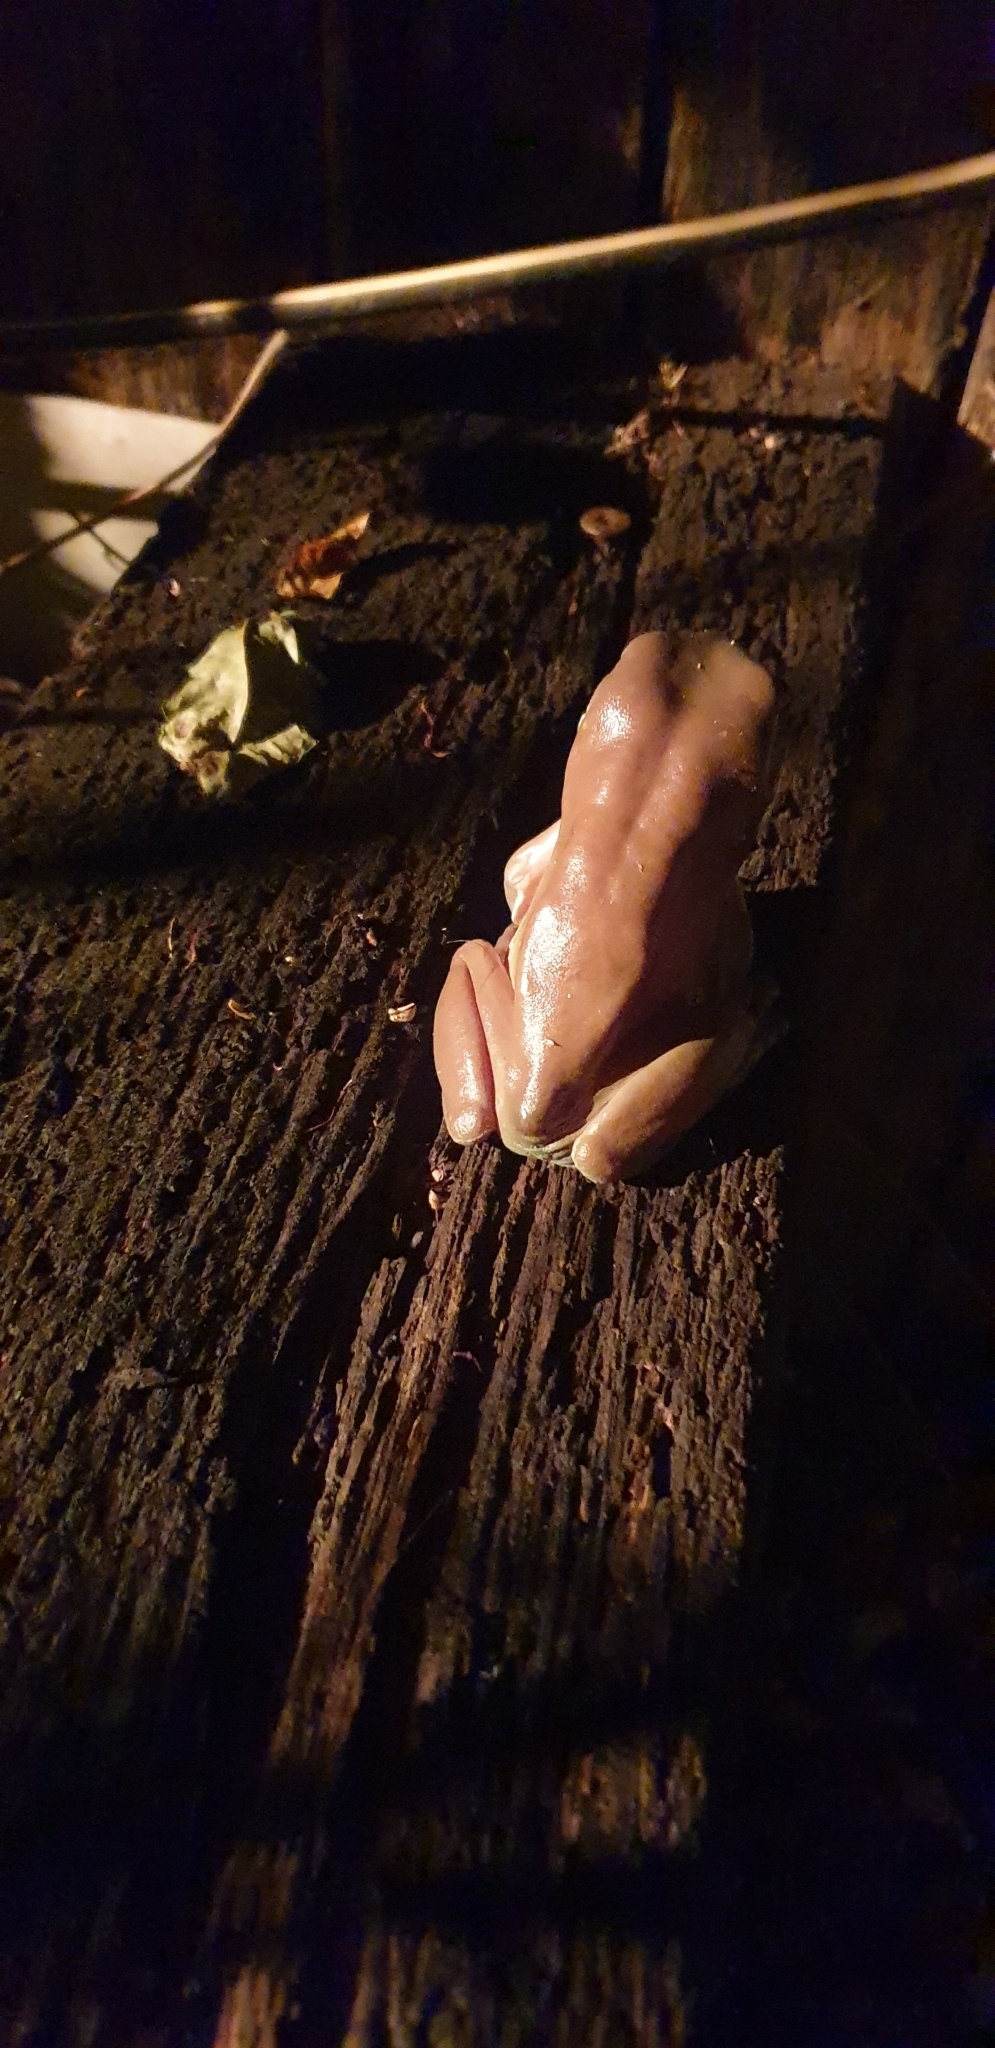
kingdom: Animalia
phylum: Chordata
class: Amphibia
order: Anura
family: Pelodryadidae
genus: Ranoidea
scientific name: Ranoidea caerulea
